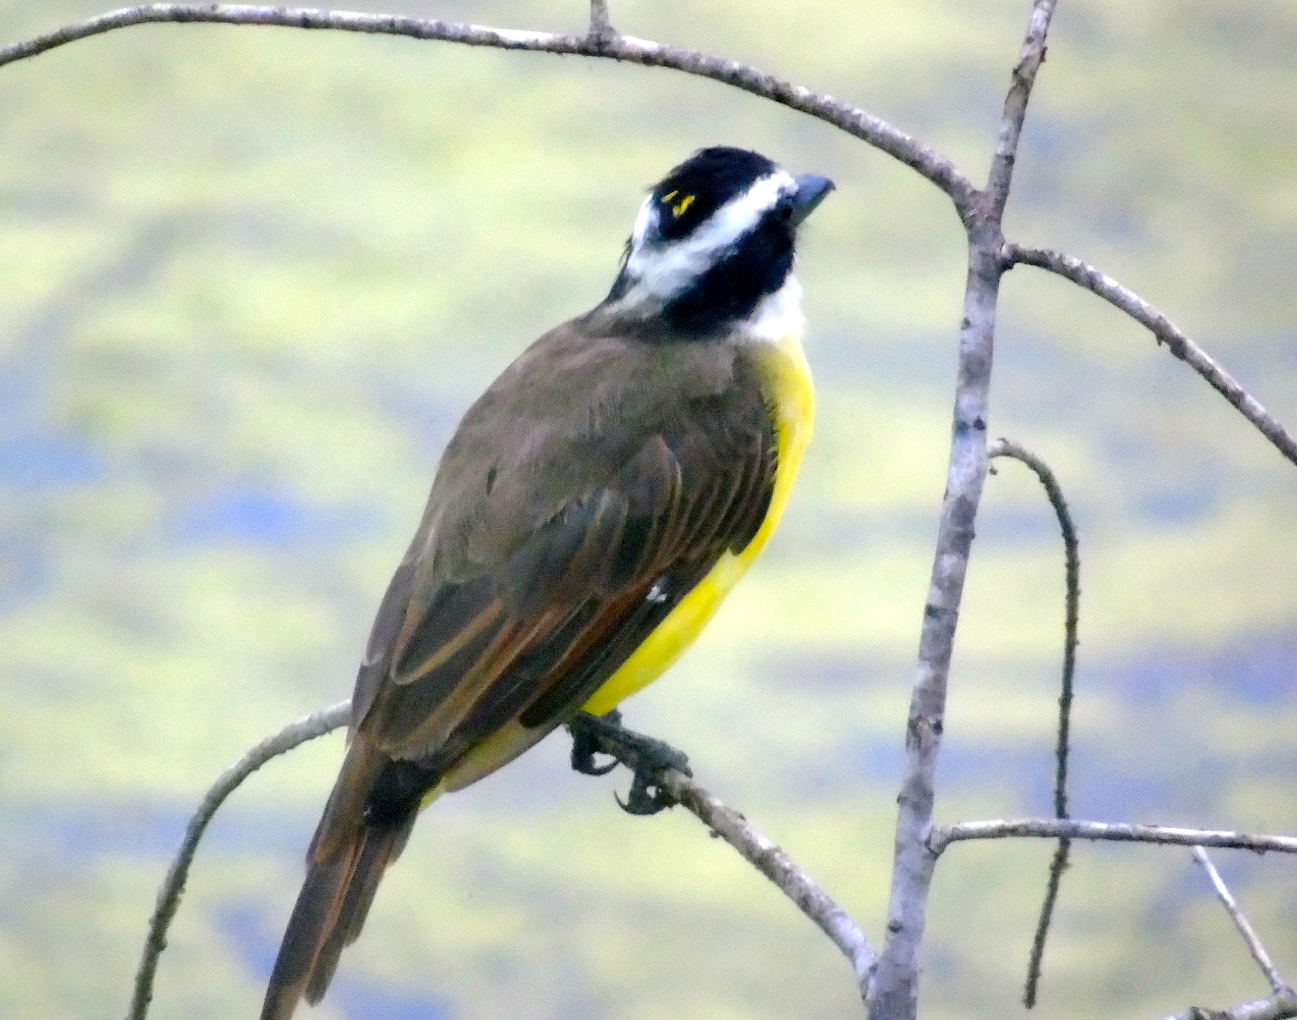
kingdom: Animalia
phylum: Chordata
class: Aves
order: Passeriformes
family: Tyrannidae
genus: Pitangus
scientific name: Pitangus sulphuratus
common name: Great kiskadee
